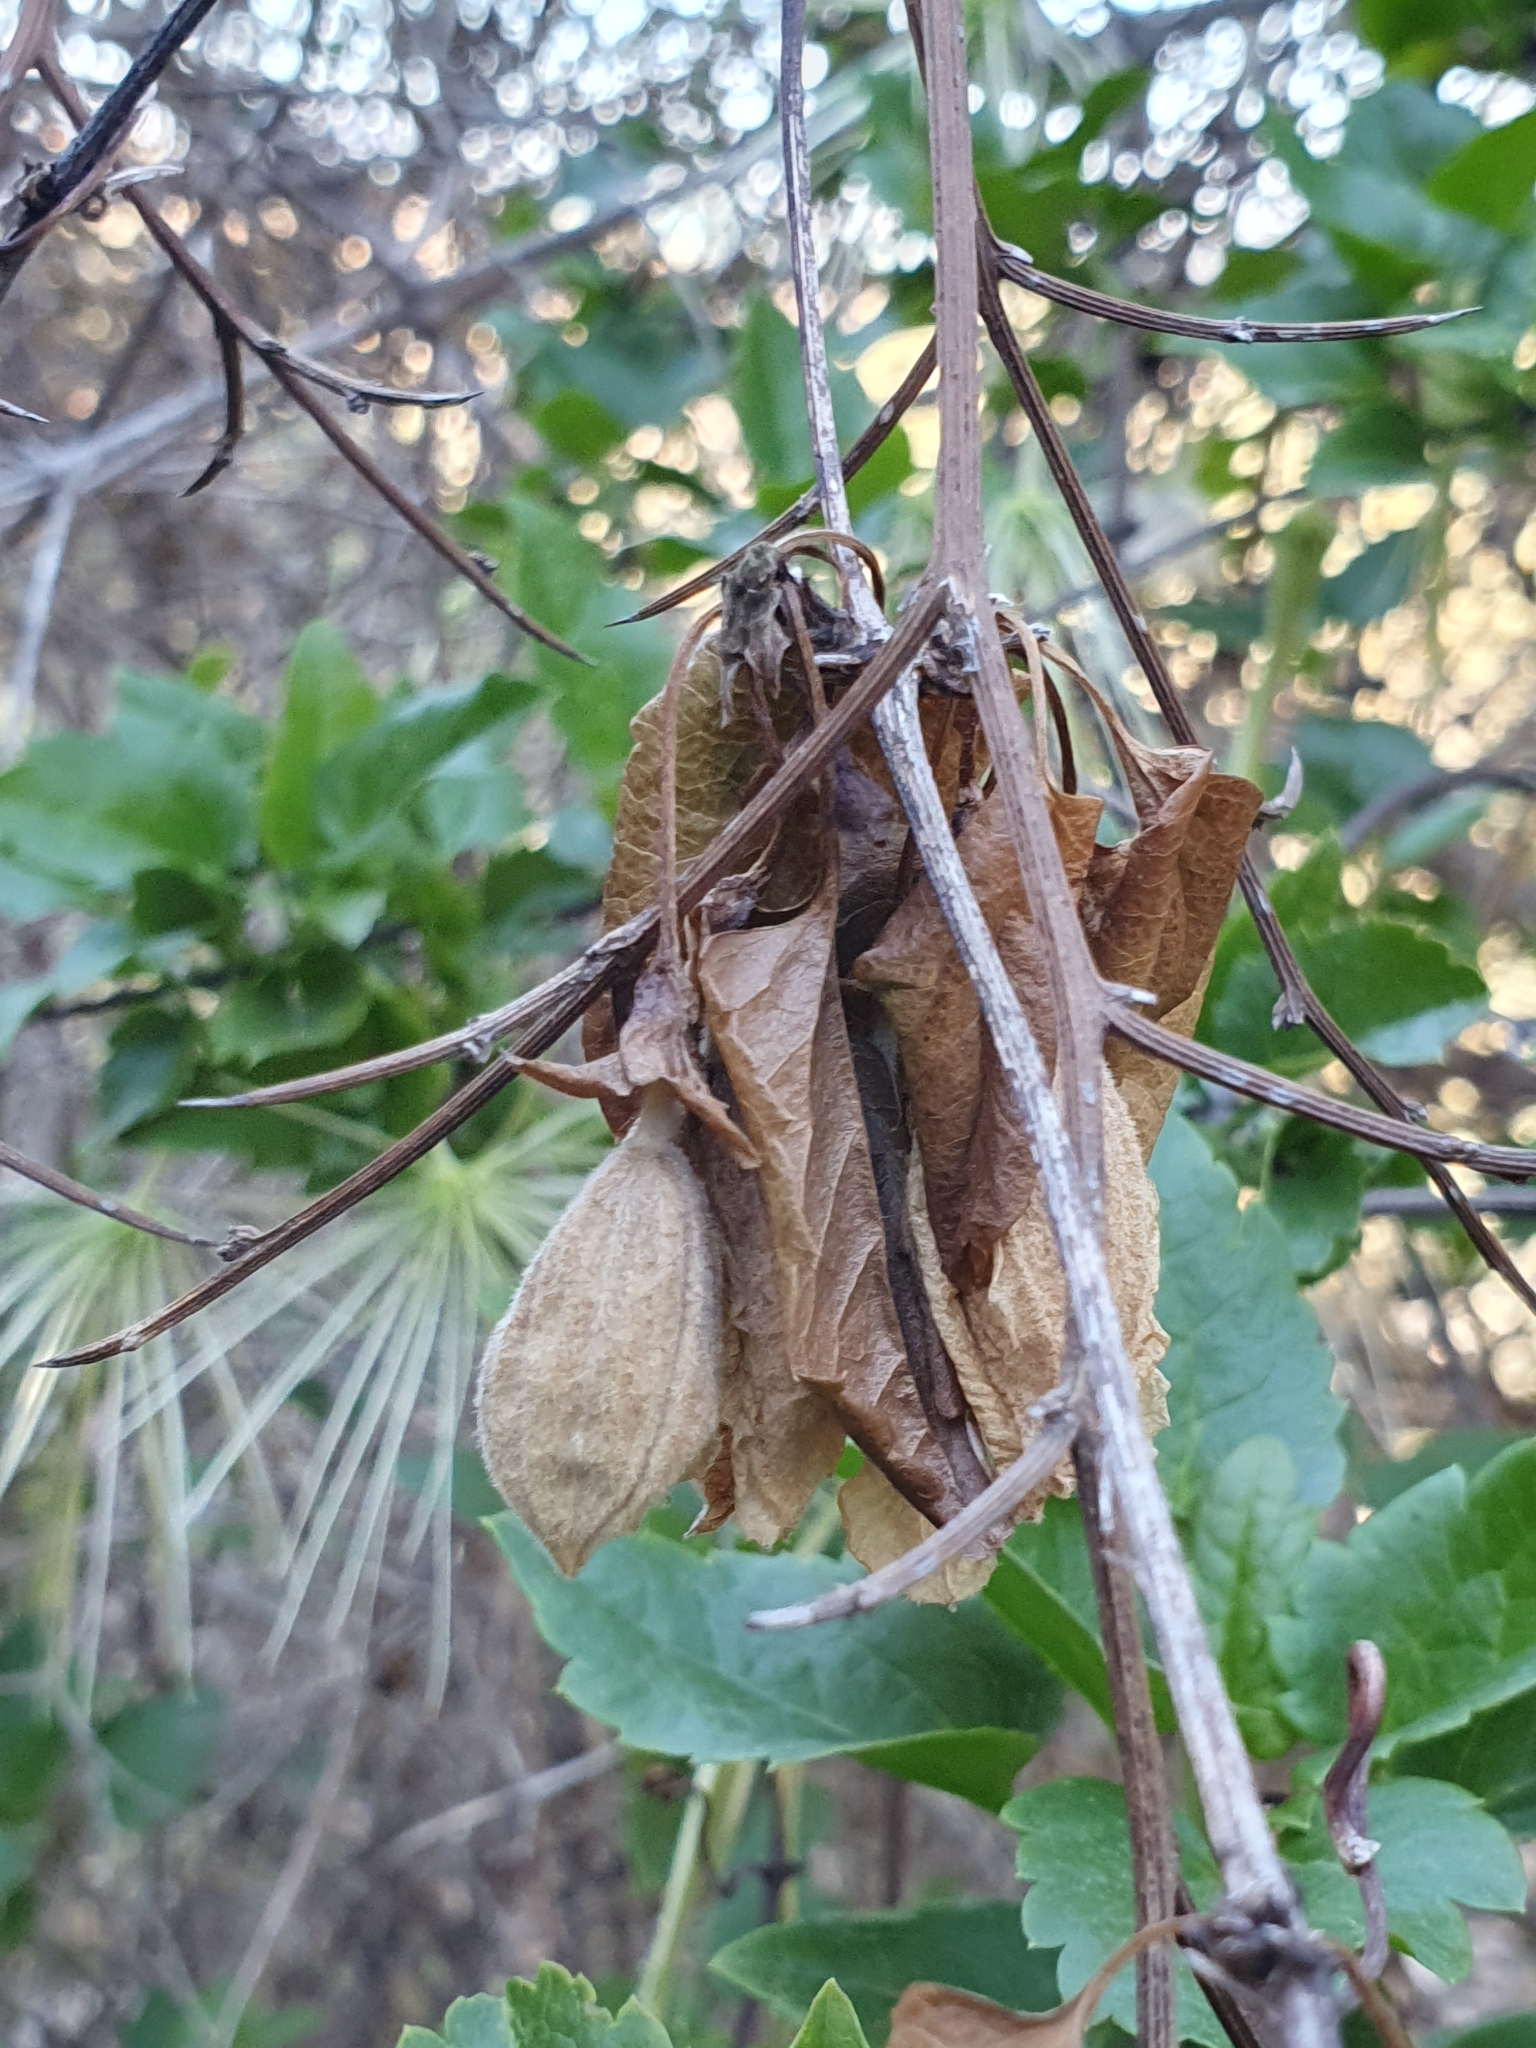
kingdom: Plantae
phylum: Tracheophyta
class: Magnoliopsida
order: Ranunculales
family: Ranunculaceae
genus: Clematis
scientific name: Clematis cirrhosa
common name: Early virgin's-bower
